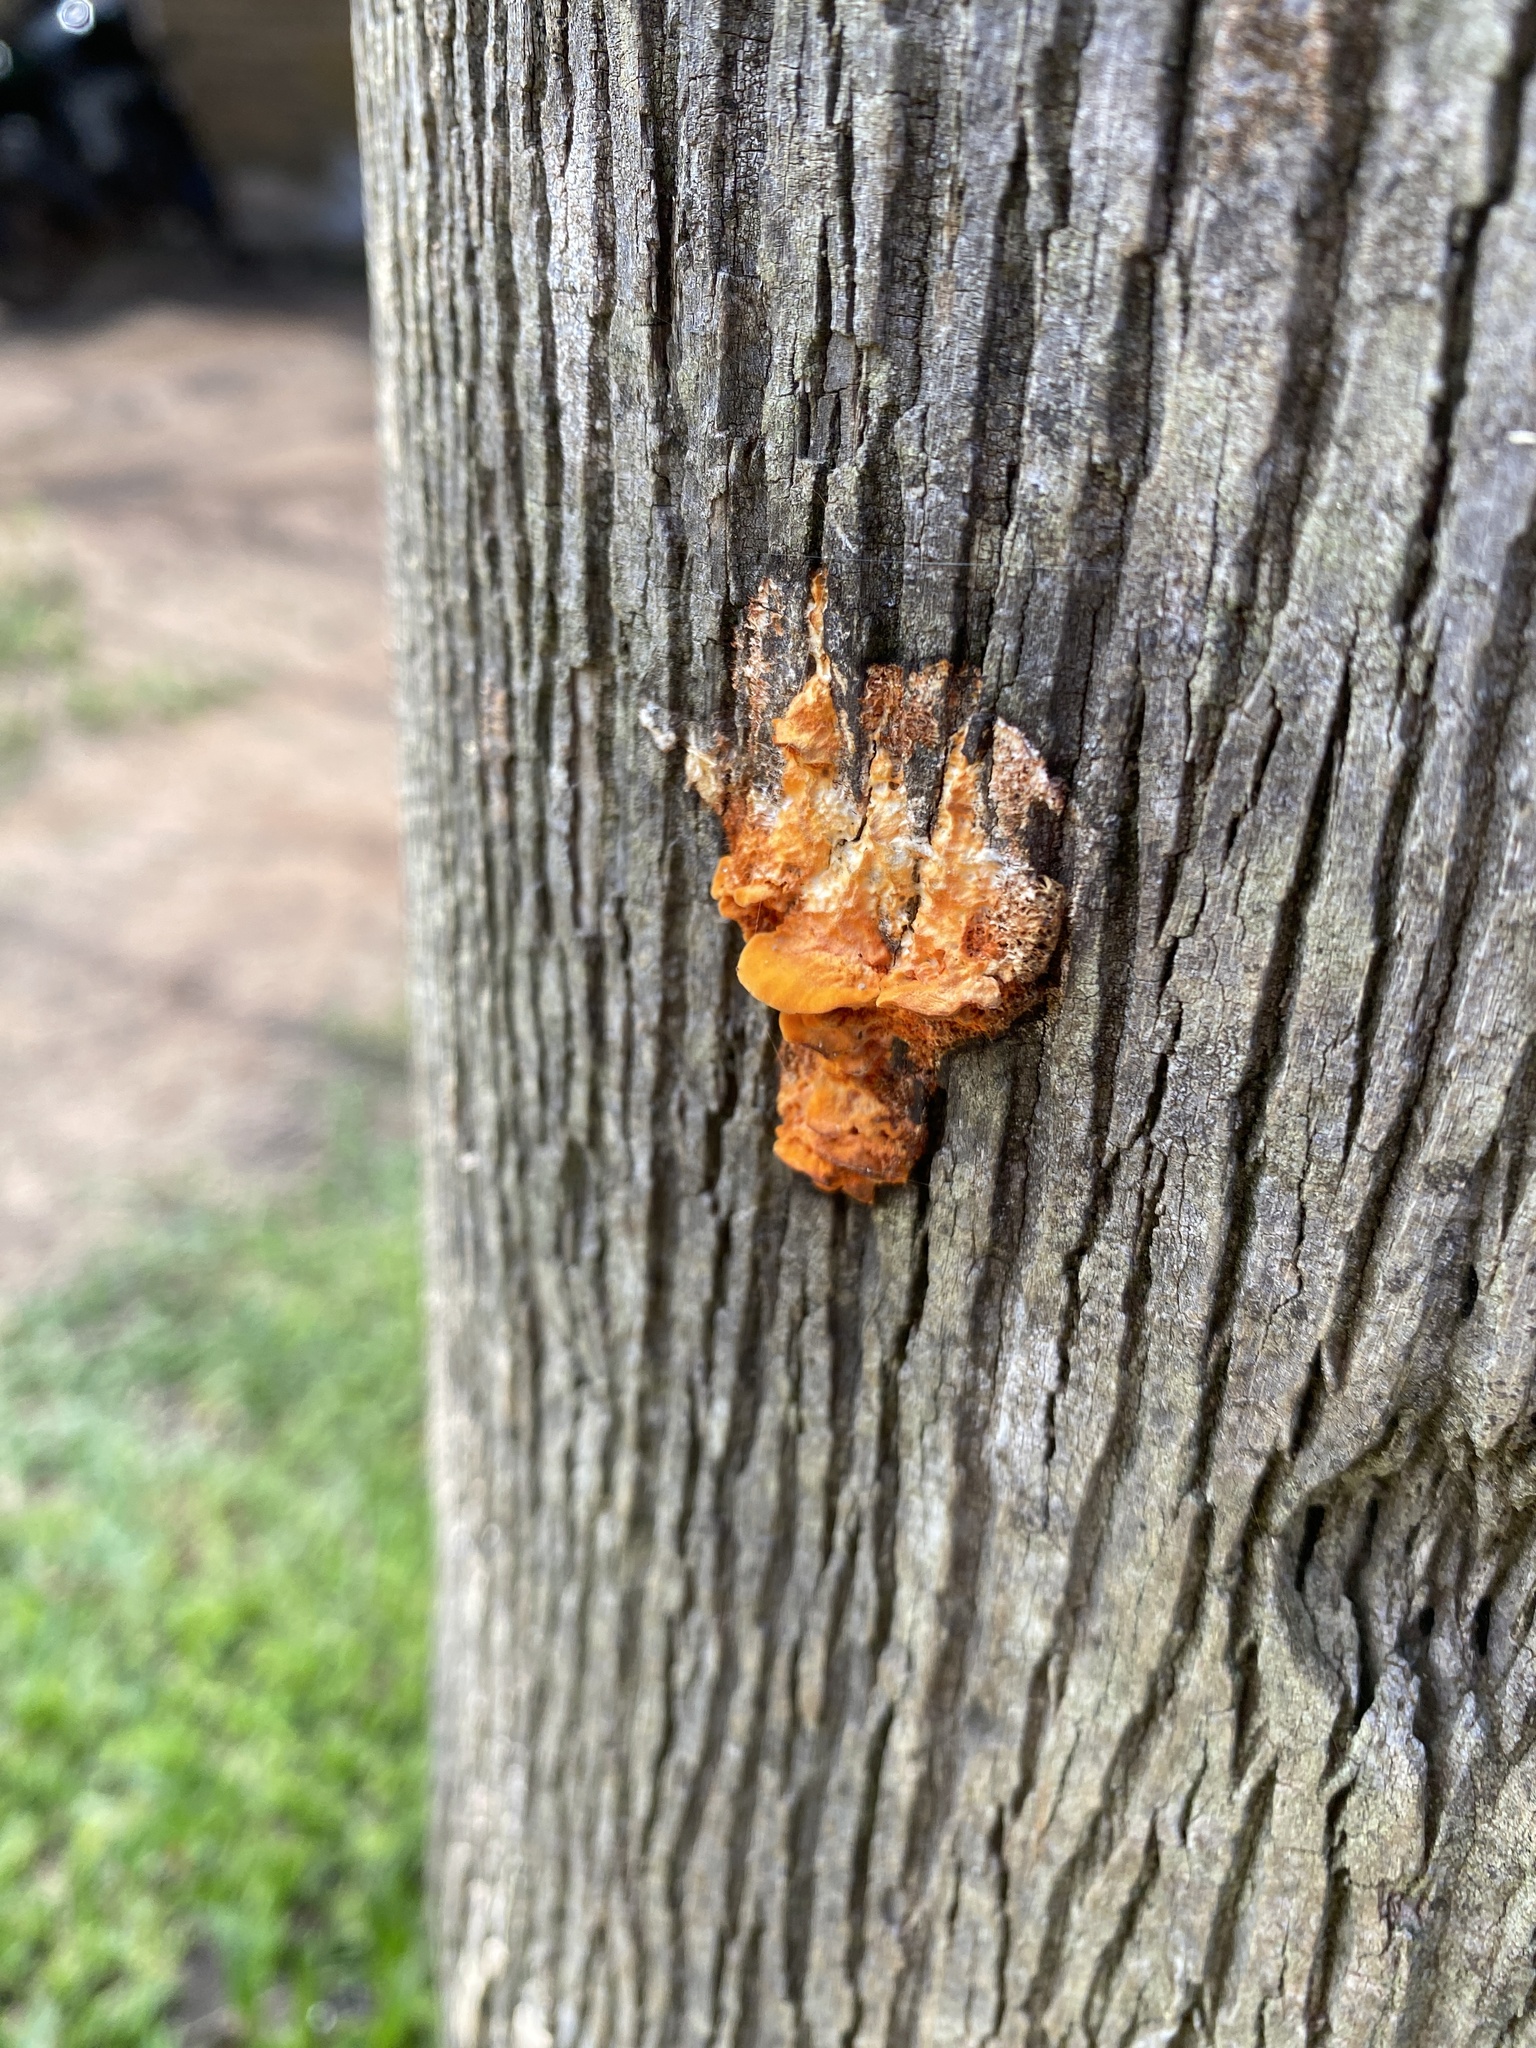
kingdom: Fungi
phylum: Basidiomycota
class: Agaricomycetes
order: Polyporales
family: Polyporaceae
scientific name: Polyporaceae
